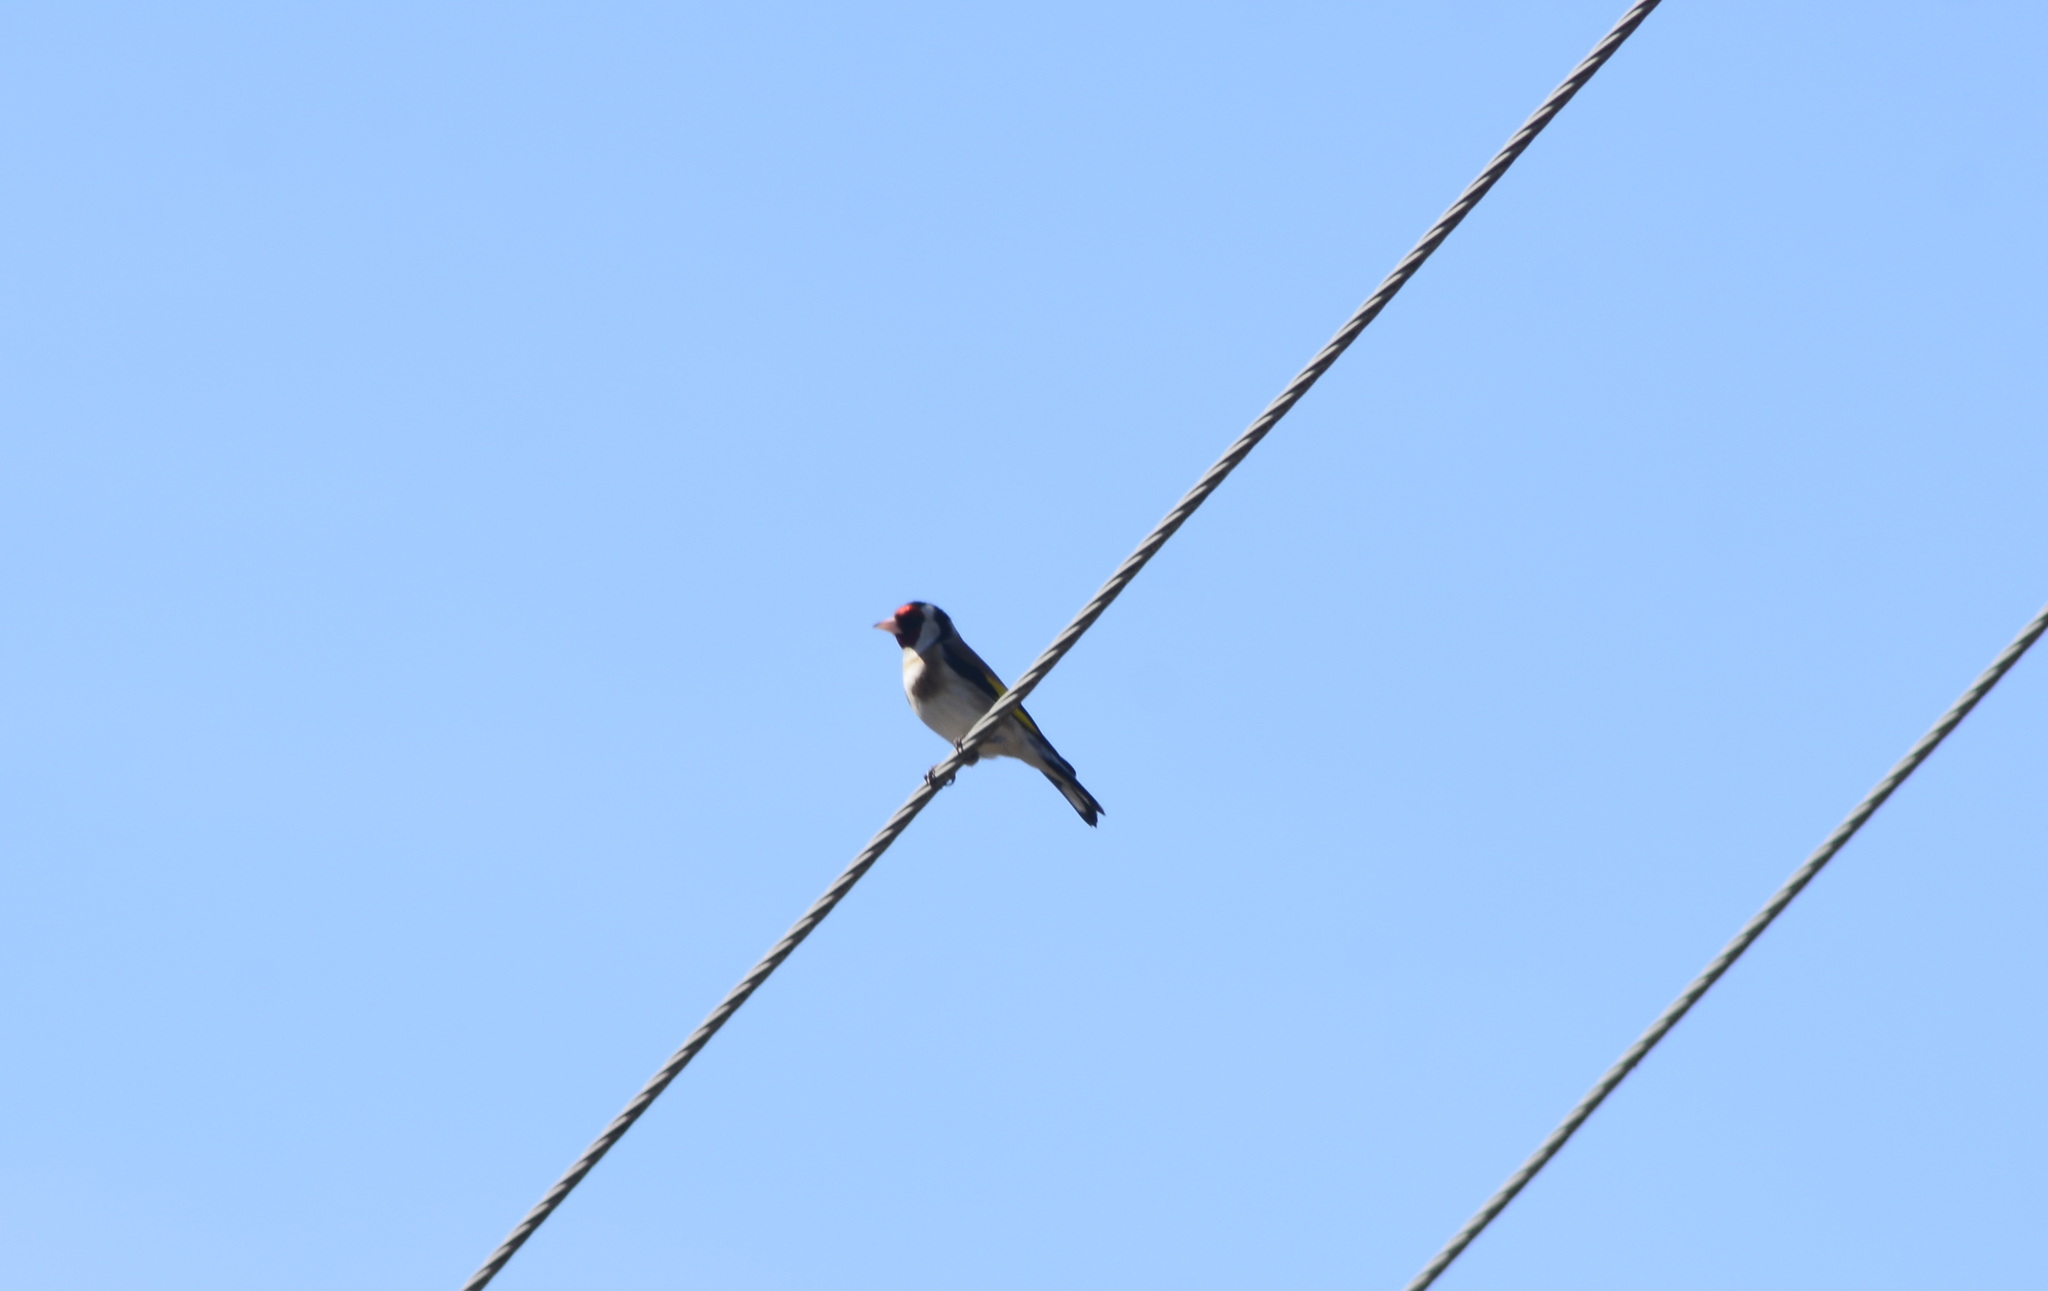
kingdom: Animalia
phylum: Chordata
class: Aves
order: Passeriformes
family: Fringillidae
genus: Carduelis
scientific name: Carduelis carduelis
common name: European goldfinch
